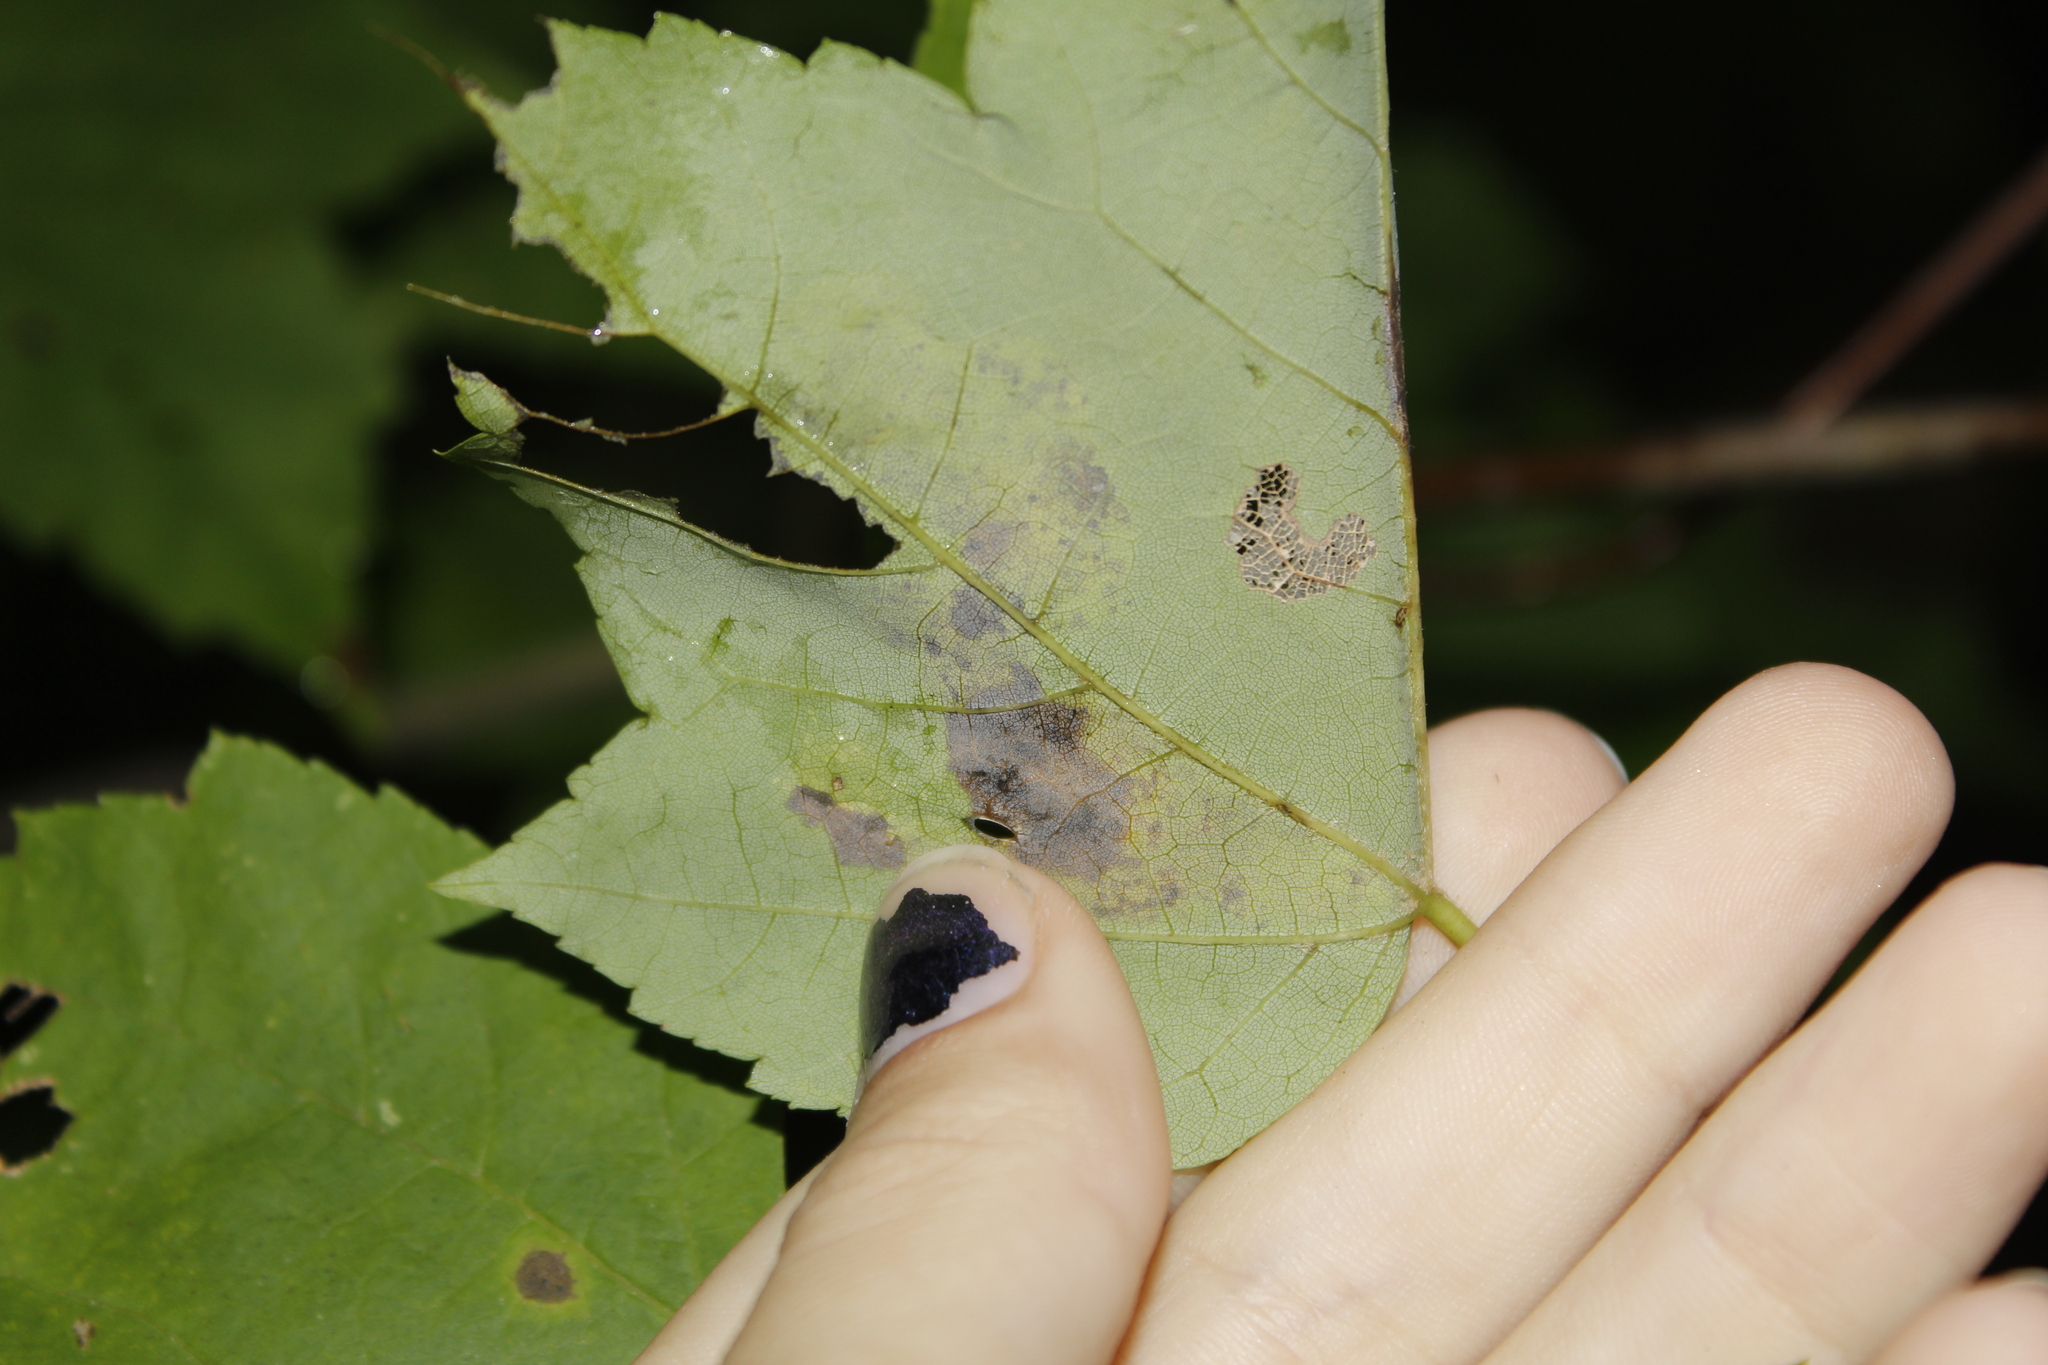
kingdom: Animalia
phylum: Arthropoda
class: Insecta
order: Lepidoptera
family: Gracillariidae
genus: Cameraria
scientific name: Cameraria aceriella
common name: Maple leafblotch miner
